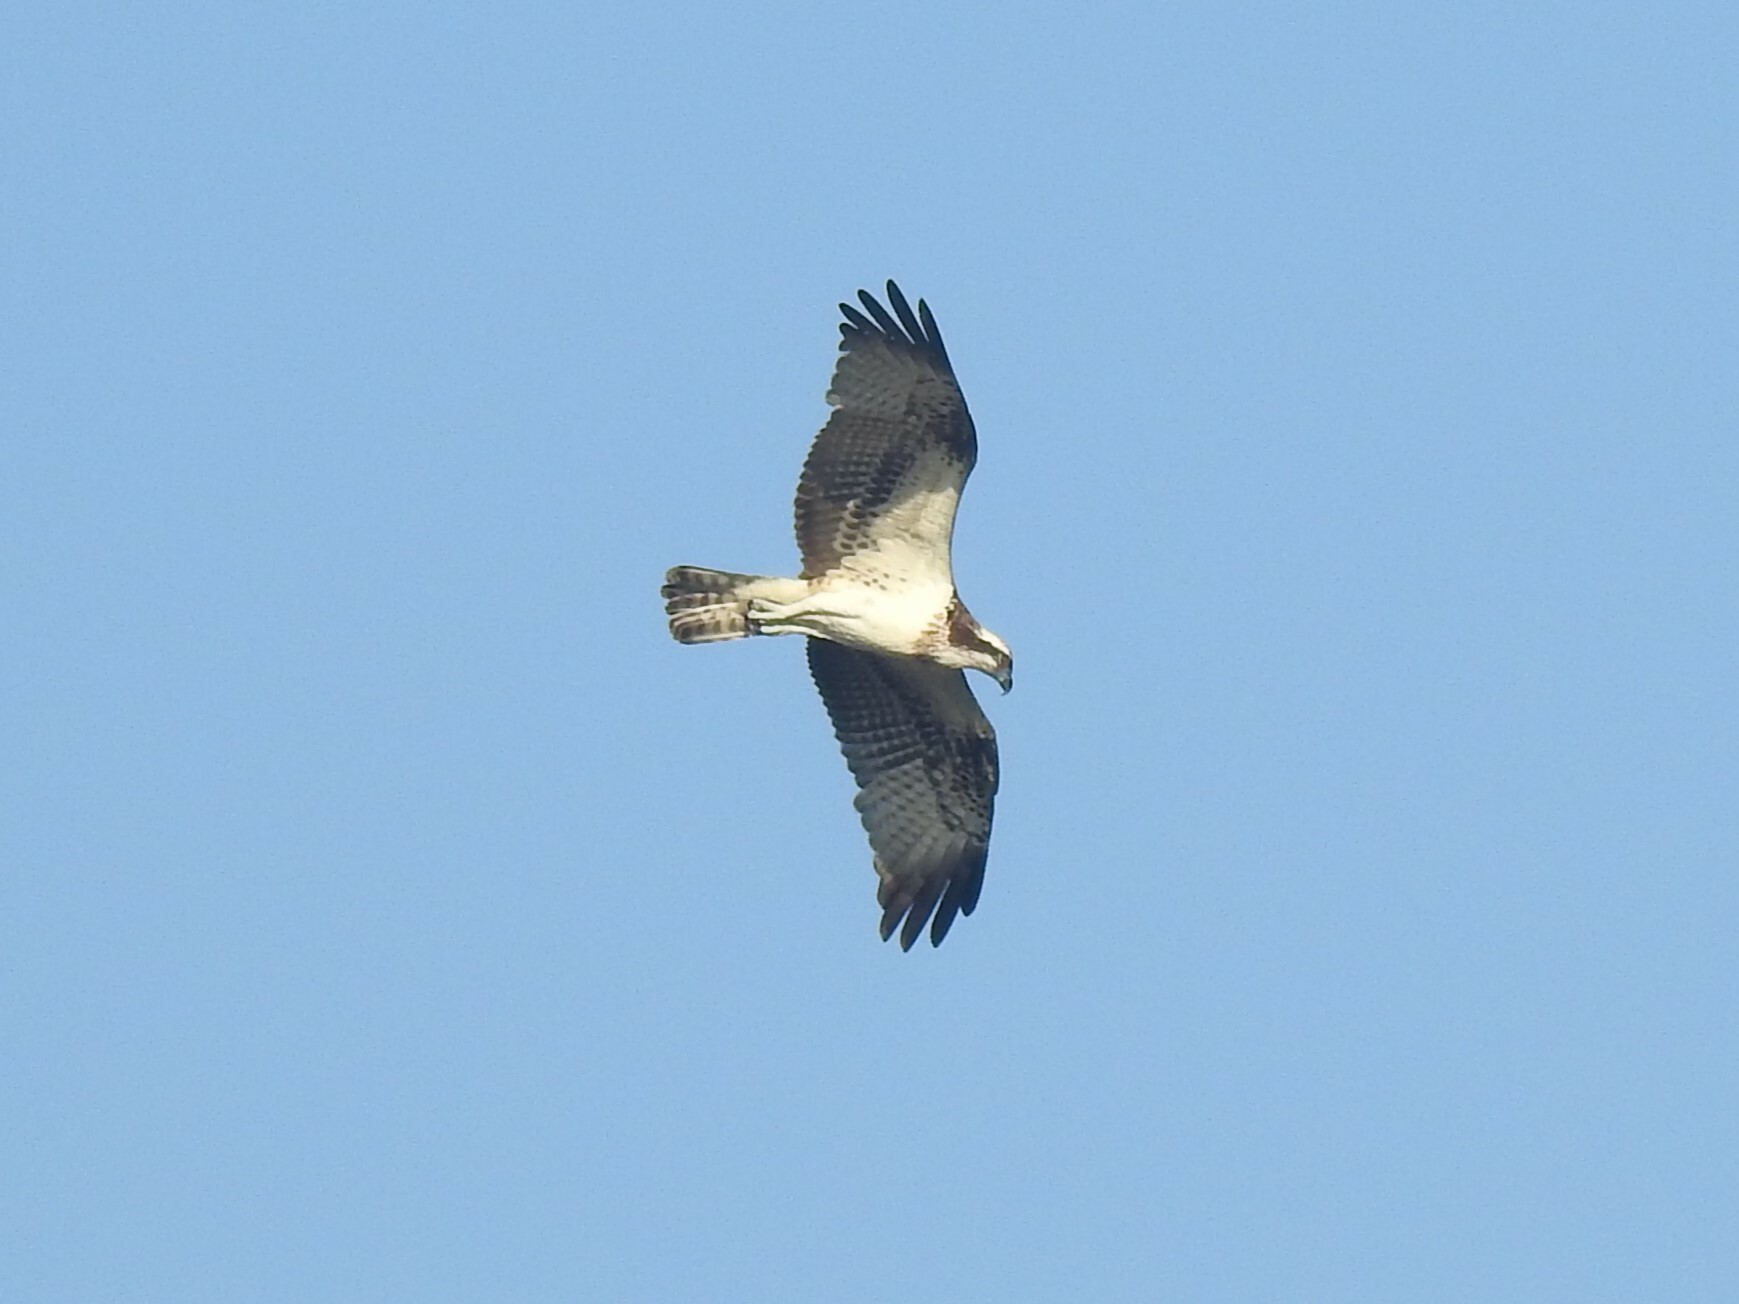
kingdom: Animalia
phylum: Chordata
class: Aves
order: Accipitriformes
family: Pandionidae
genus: Pandion
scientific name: Pandion haliaetus
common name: Osprey
